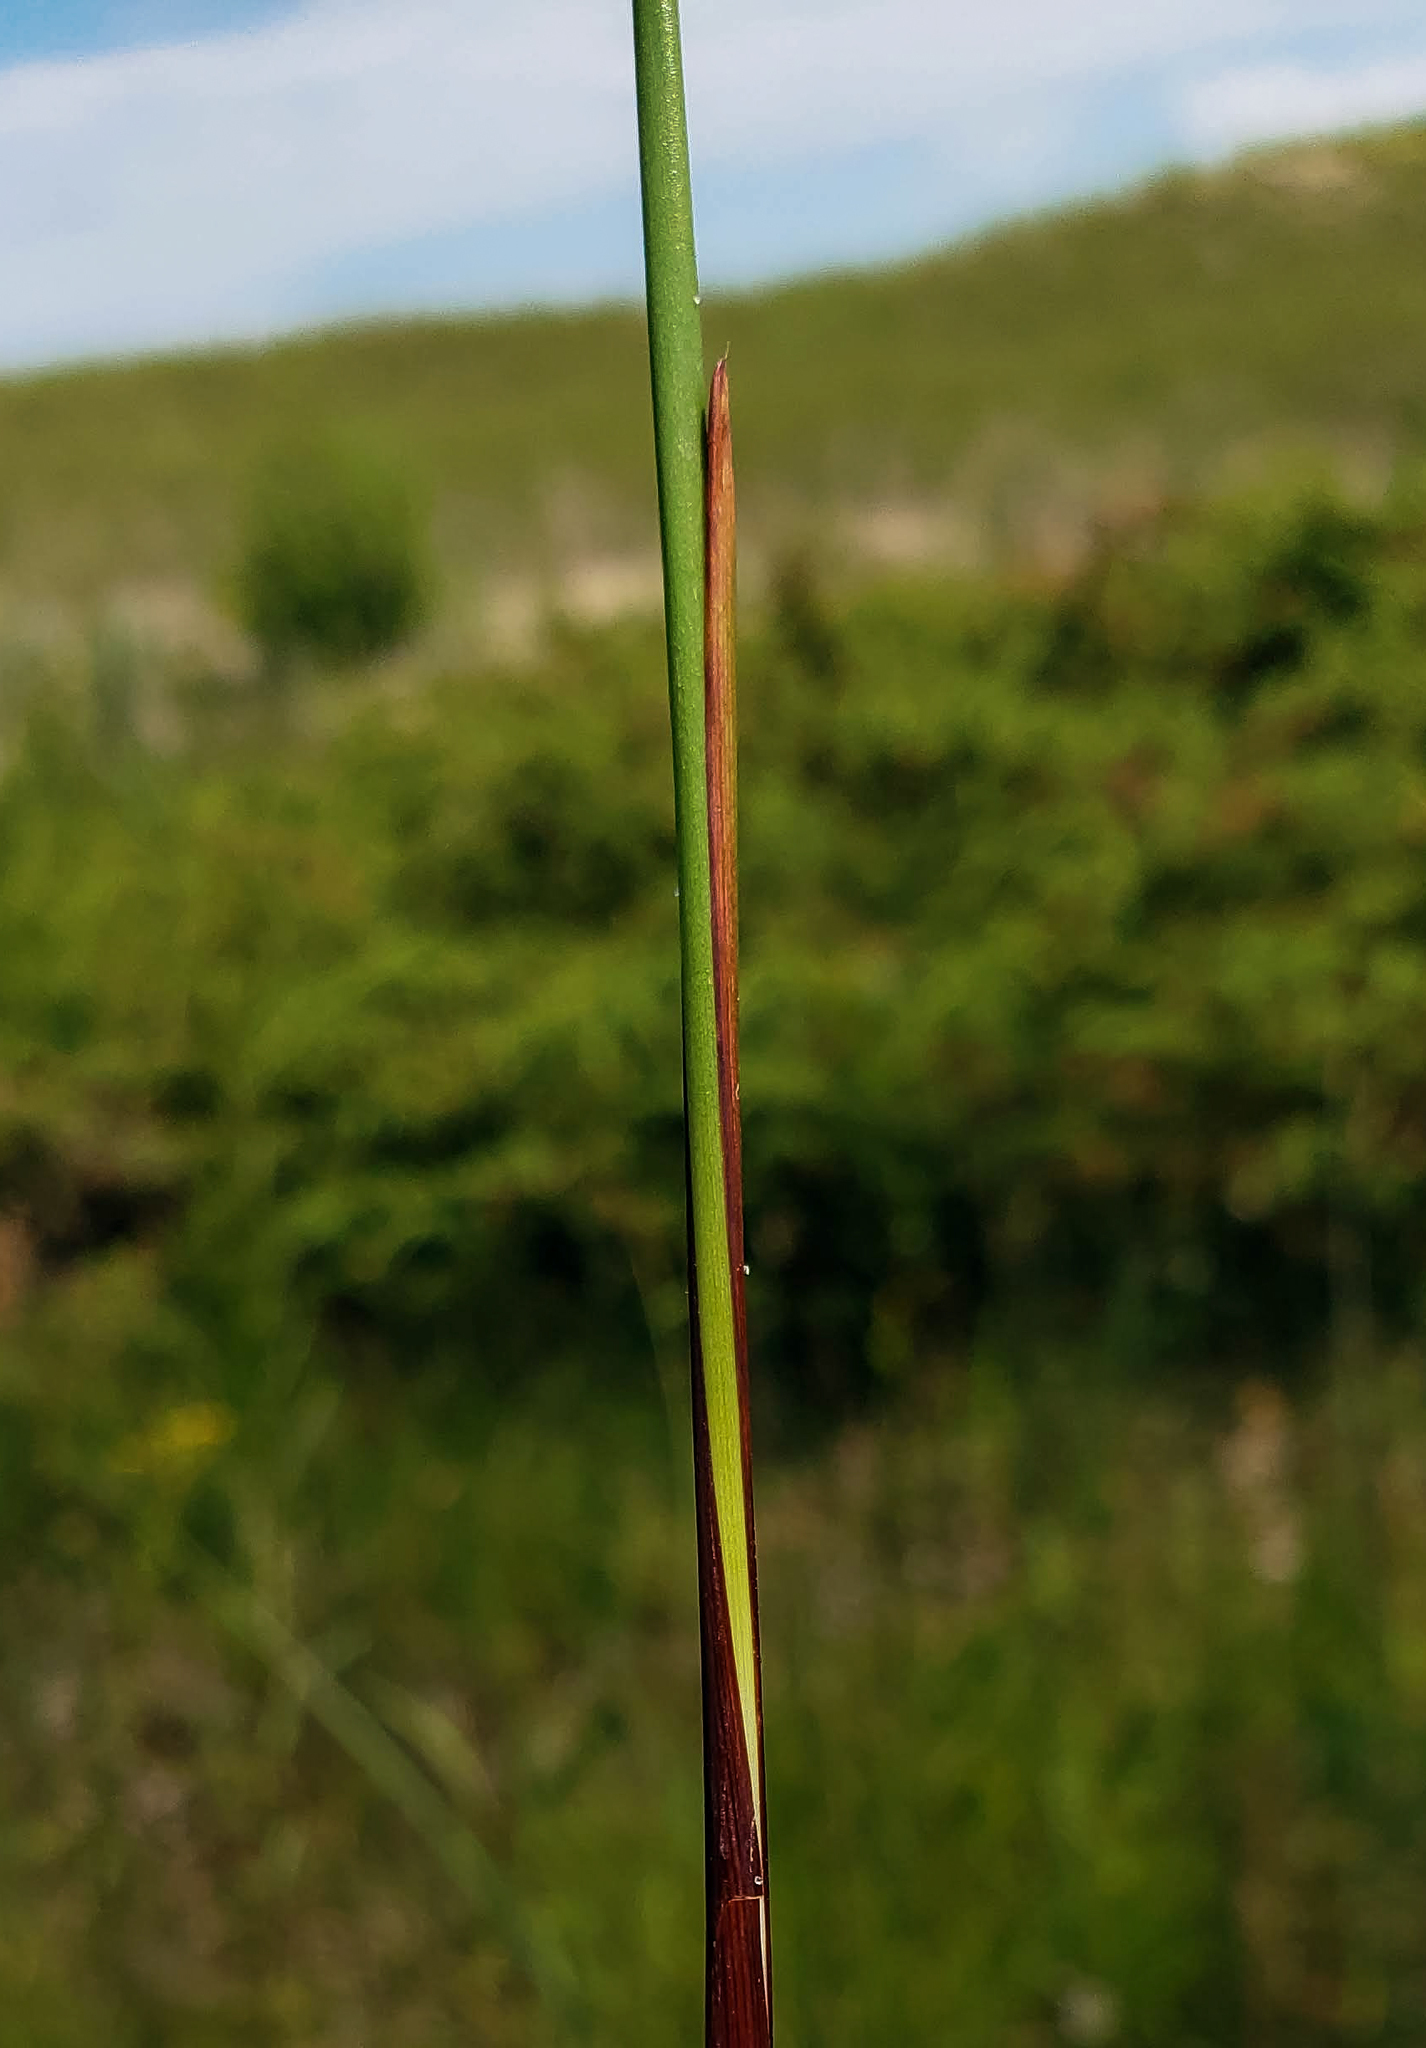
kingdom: Plantae
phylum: Tracheophyta
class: Liliopsida
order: Poales
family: Juncaceae
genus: Juncus
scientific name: Juncus balticus
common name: Baltic rush
